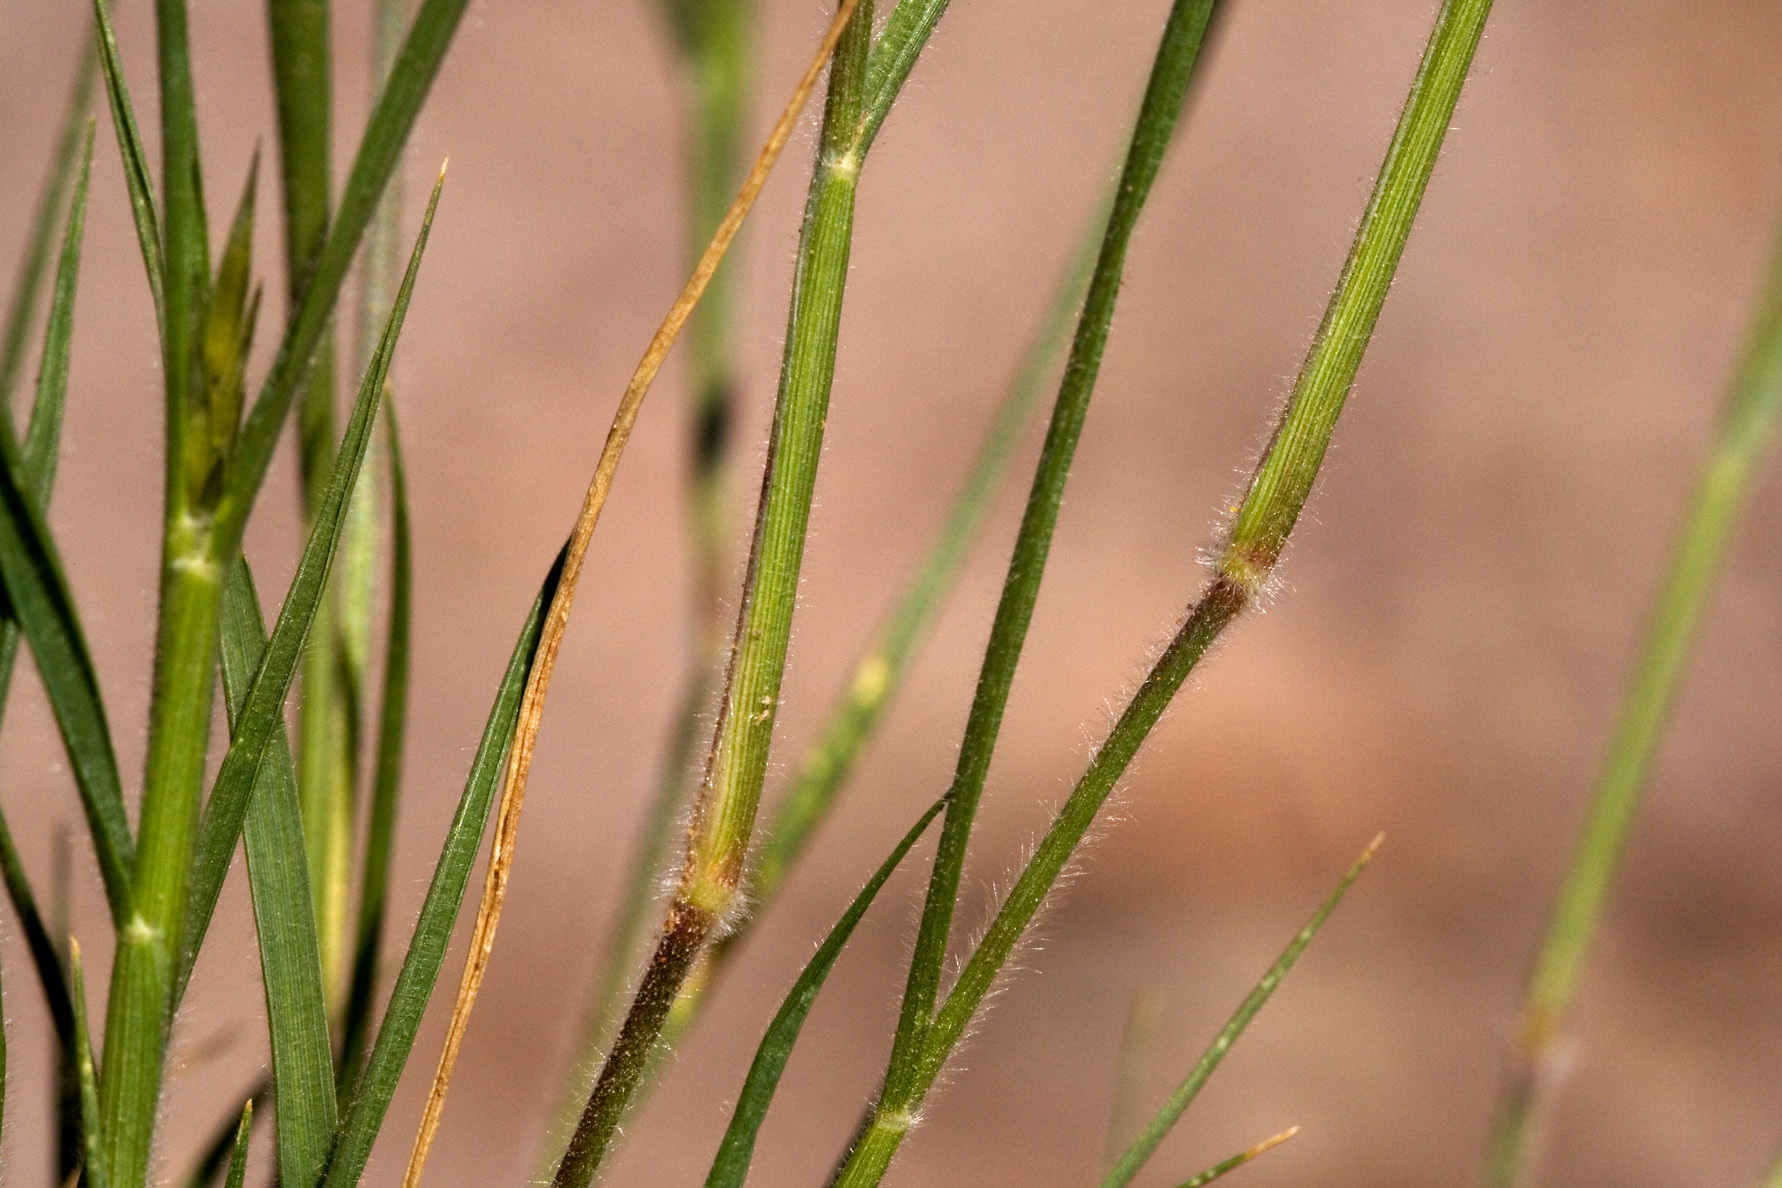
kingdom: Plantae
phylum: Tracheophyta
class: Liliopsida
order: Poales
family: Poaceae
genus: Enneapogon
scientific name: Enneapogon desvauxii
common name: Feather pappus grass
